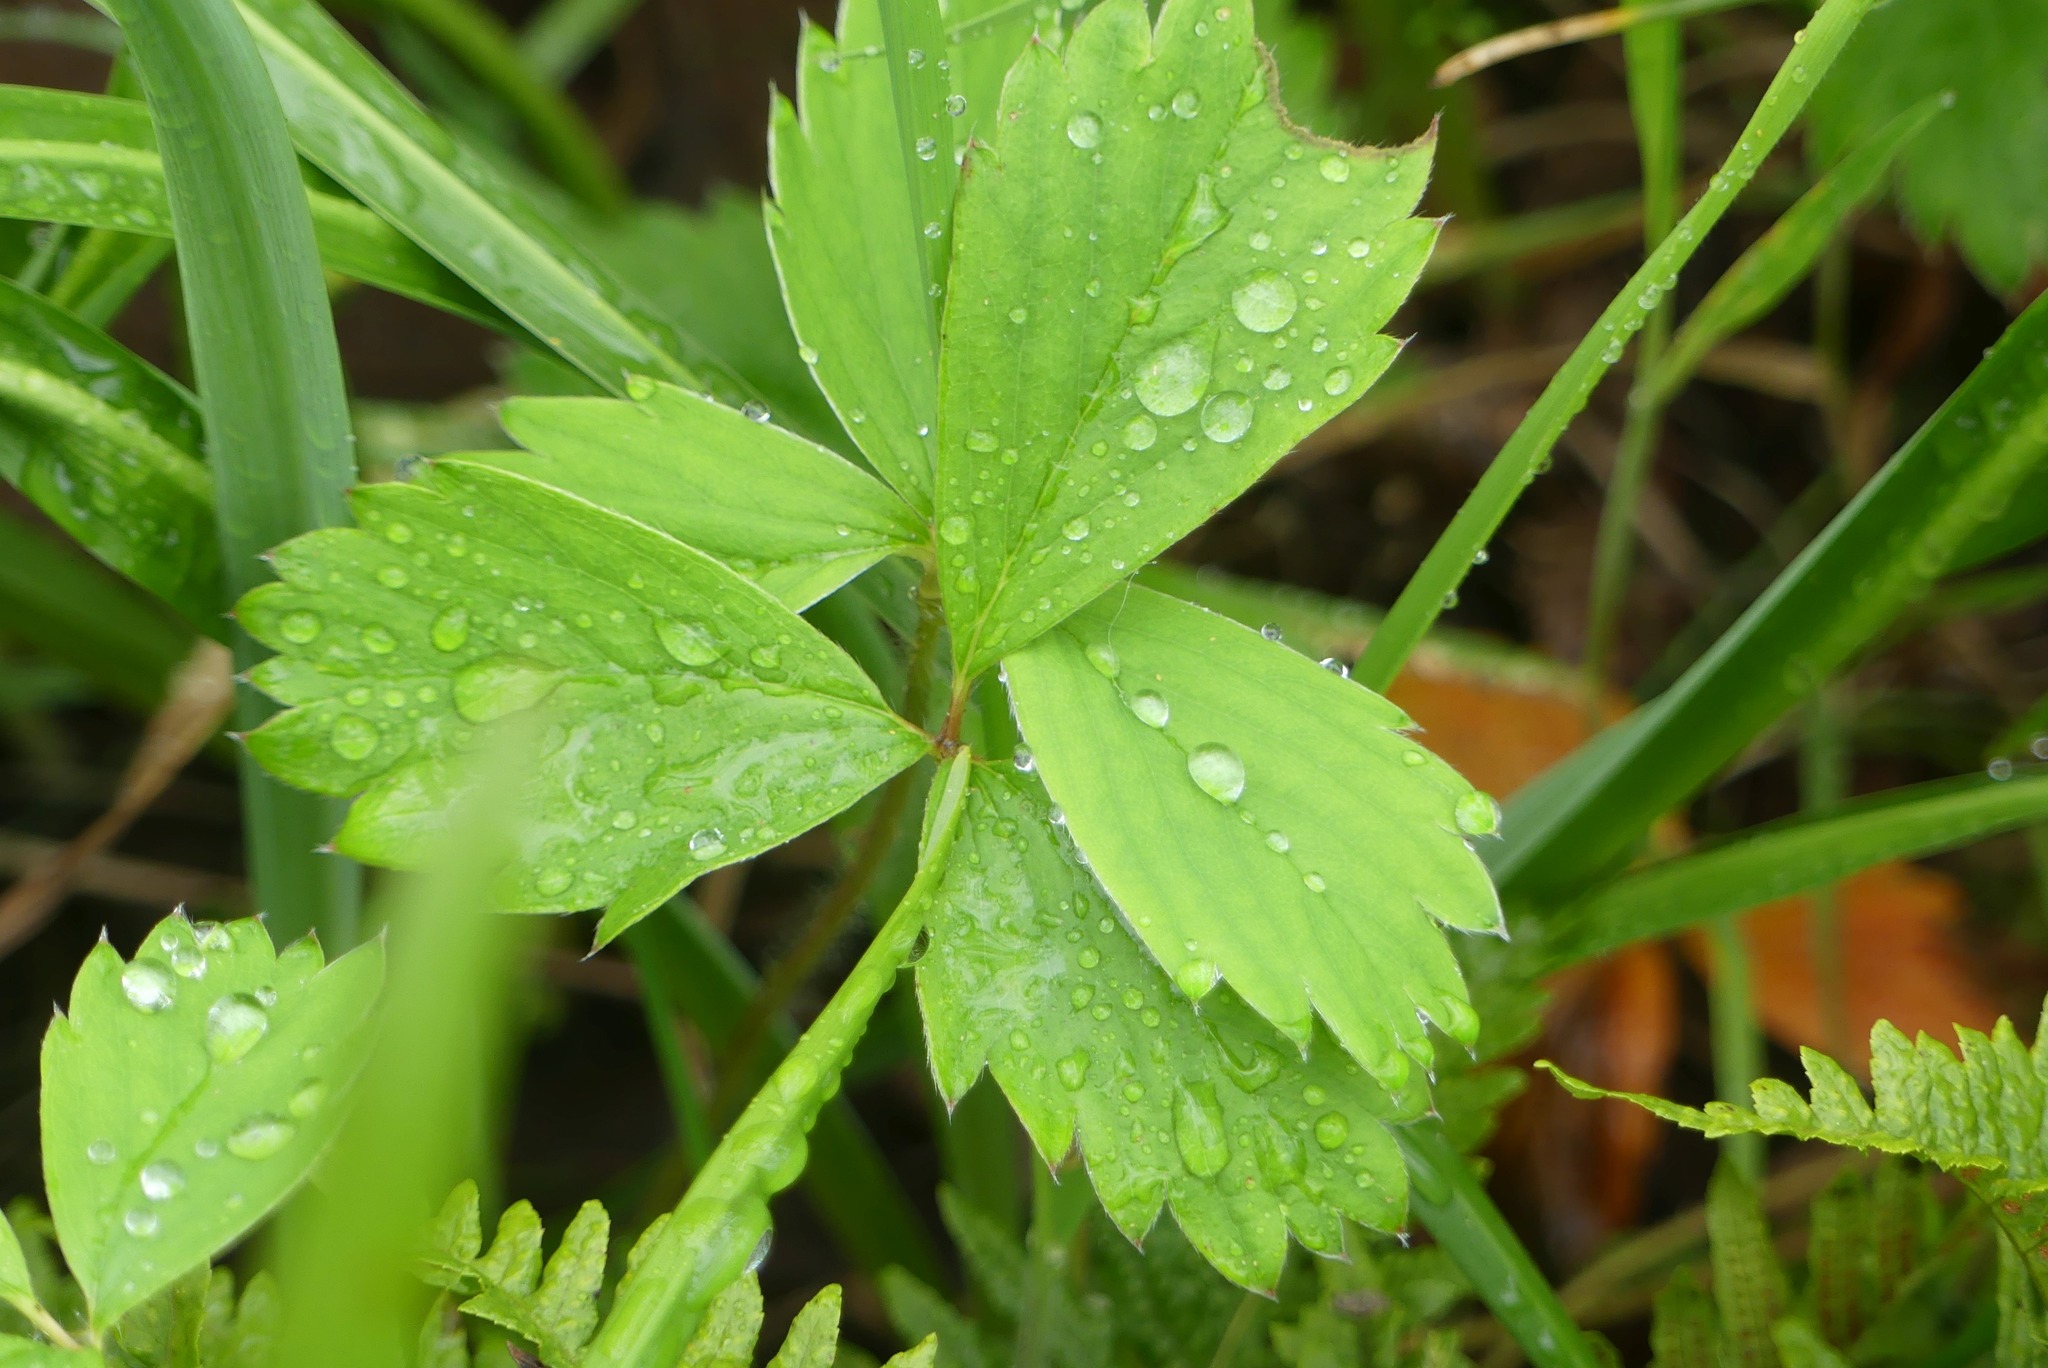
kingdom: Plantae
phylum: Tracheophyta
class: Magnoliopsida
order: Rosales
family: Rosaceae
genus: Fragaria
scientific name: Fragaria virginiana
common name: Thickleaved wild strawberry
